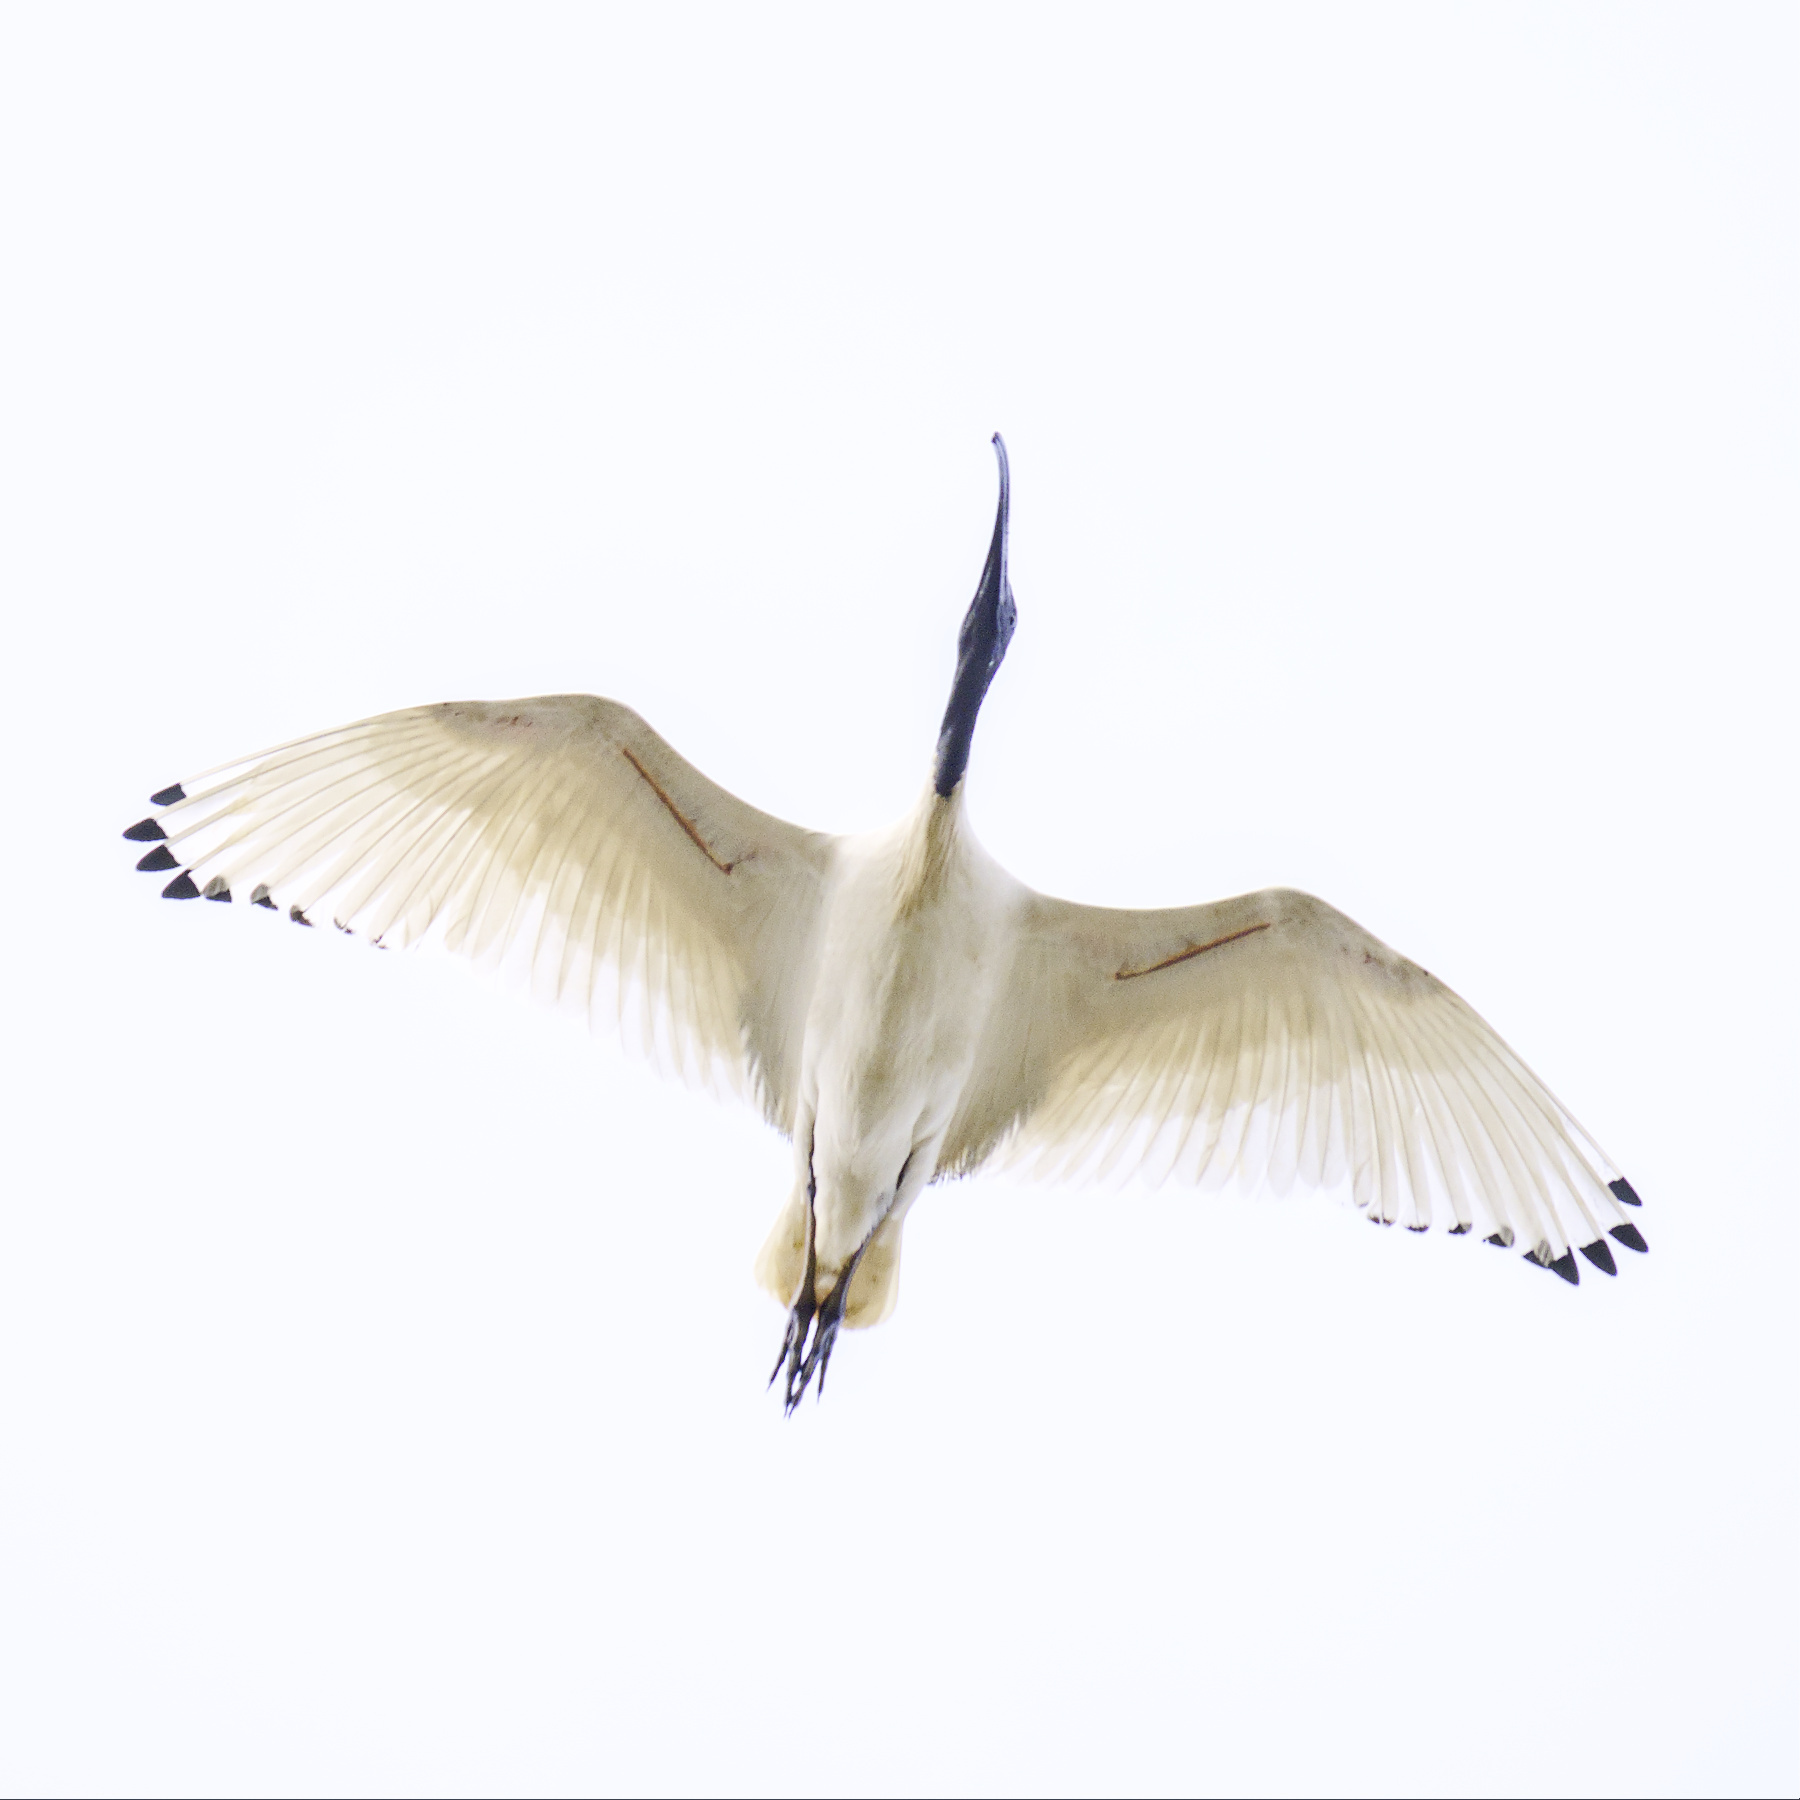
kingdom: Animalia
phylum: Chordata
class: Aves
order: Pelecaniformes
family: Threskiornithidae
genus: Threskiornis
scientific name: Threskiornis molucca
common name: Australian white ibis
